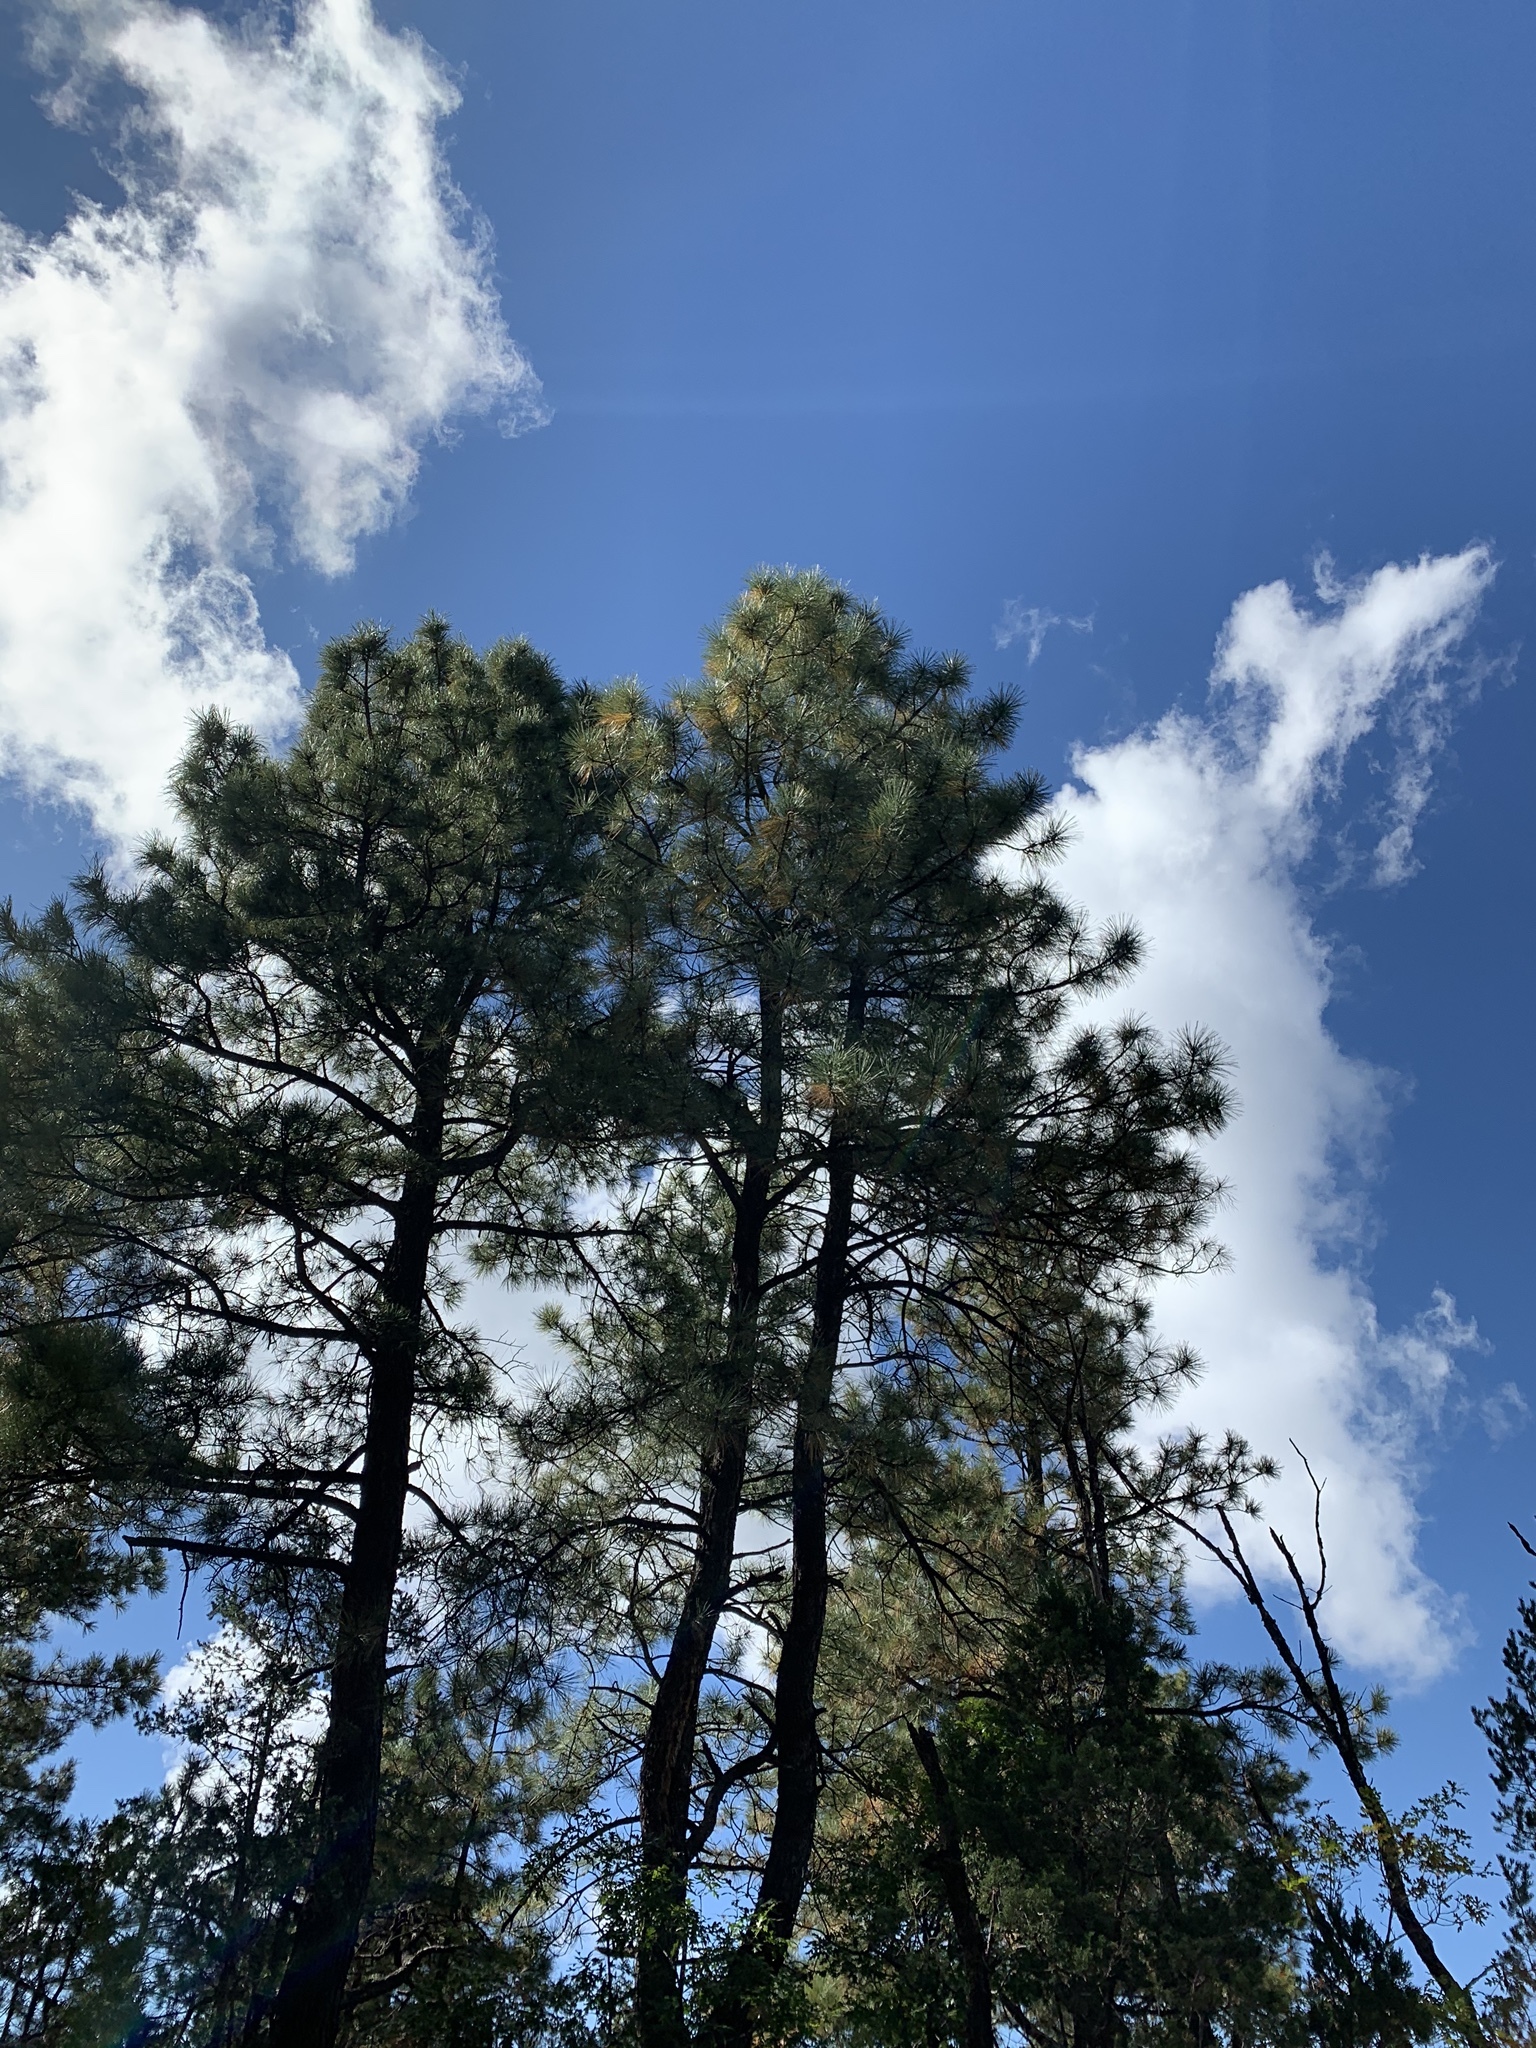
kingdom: Plantae
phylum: Tracheophyta
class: Pinopsida
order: Pinales
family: Pinaceae
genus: Pinus
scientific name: Pinus ponderosa
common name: Western yellow-pine
